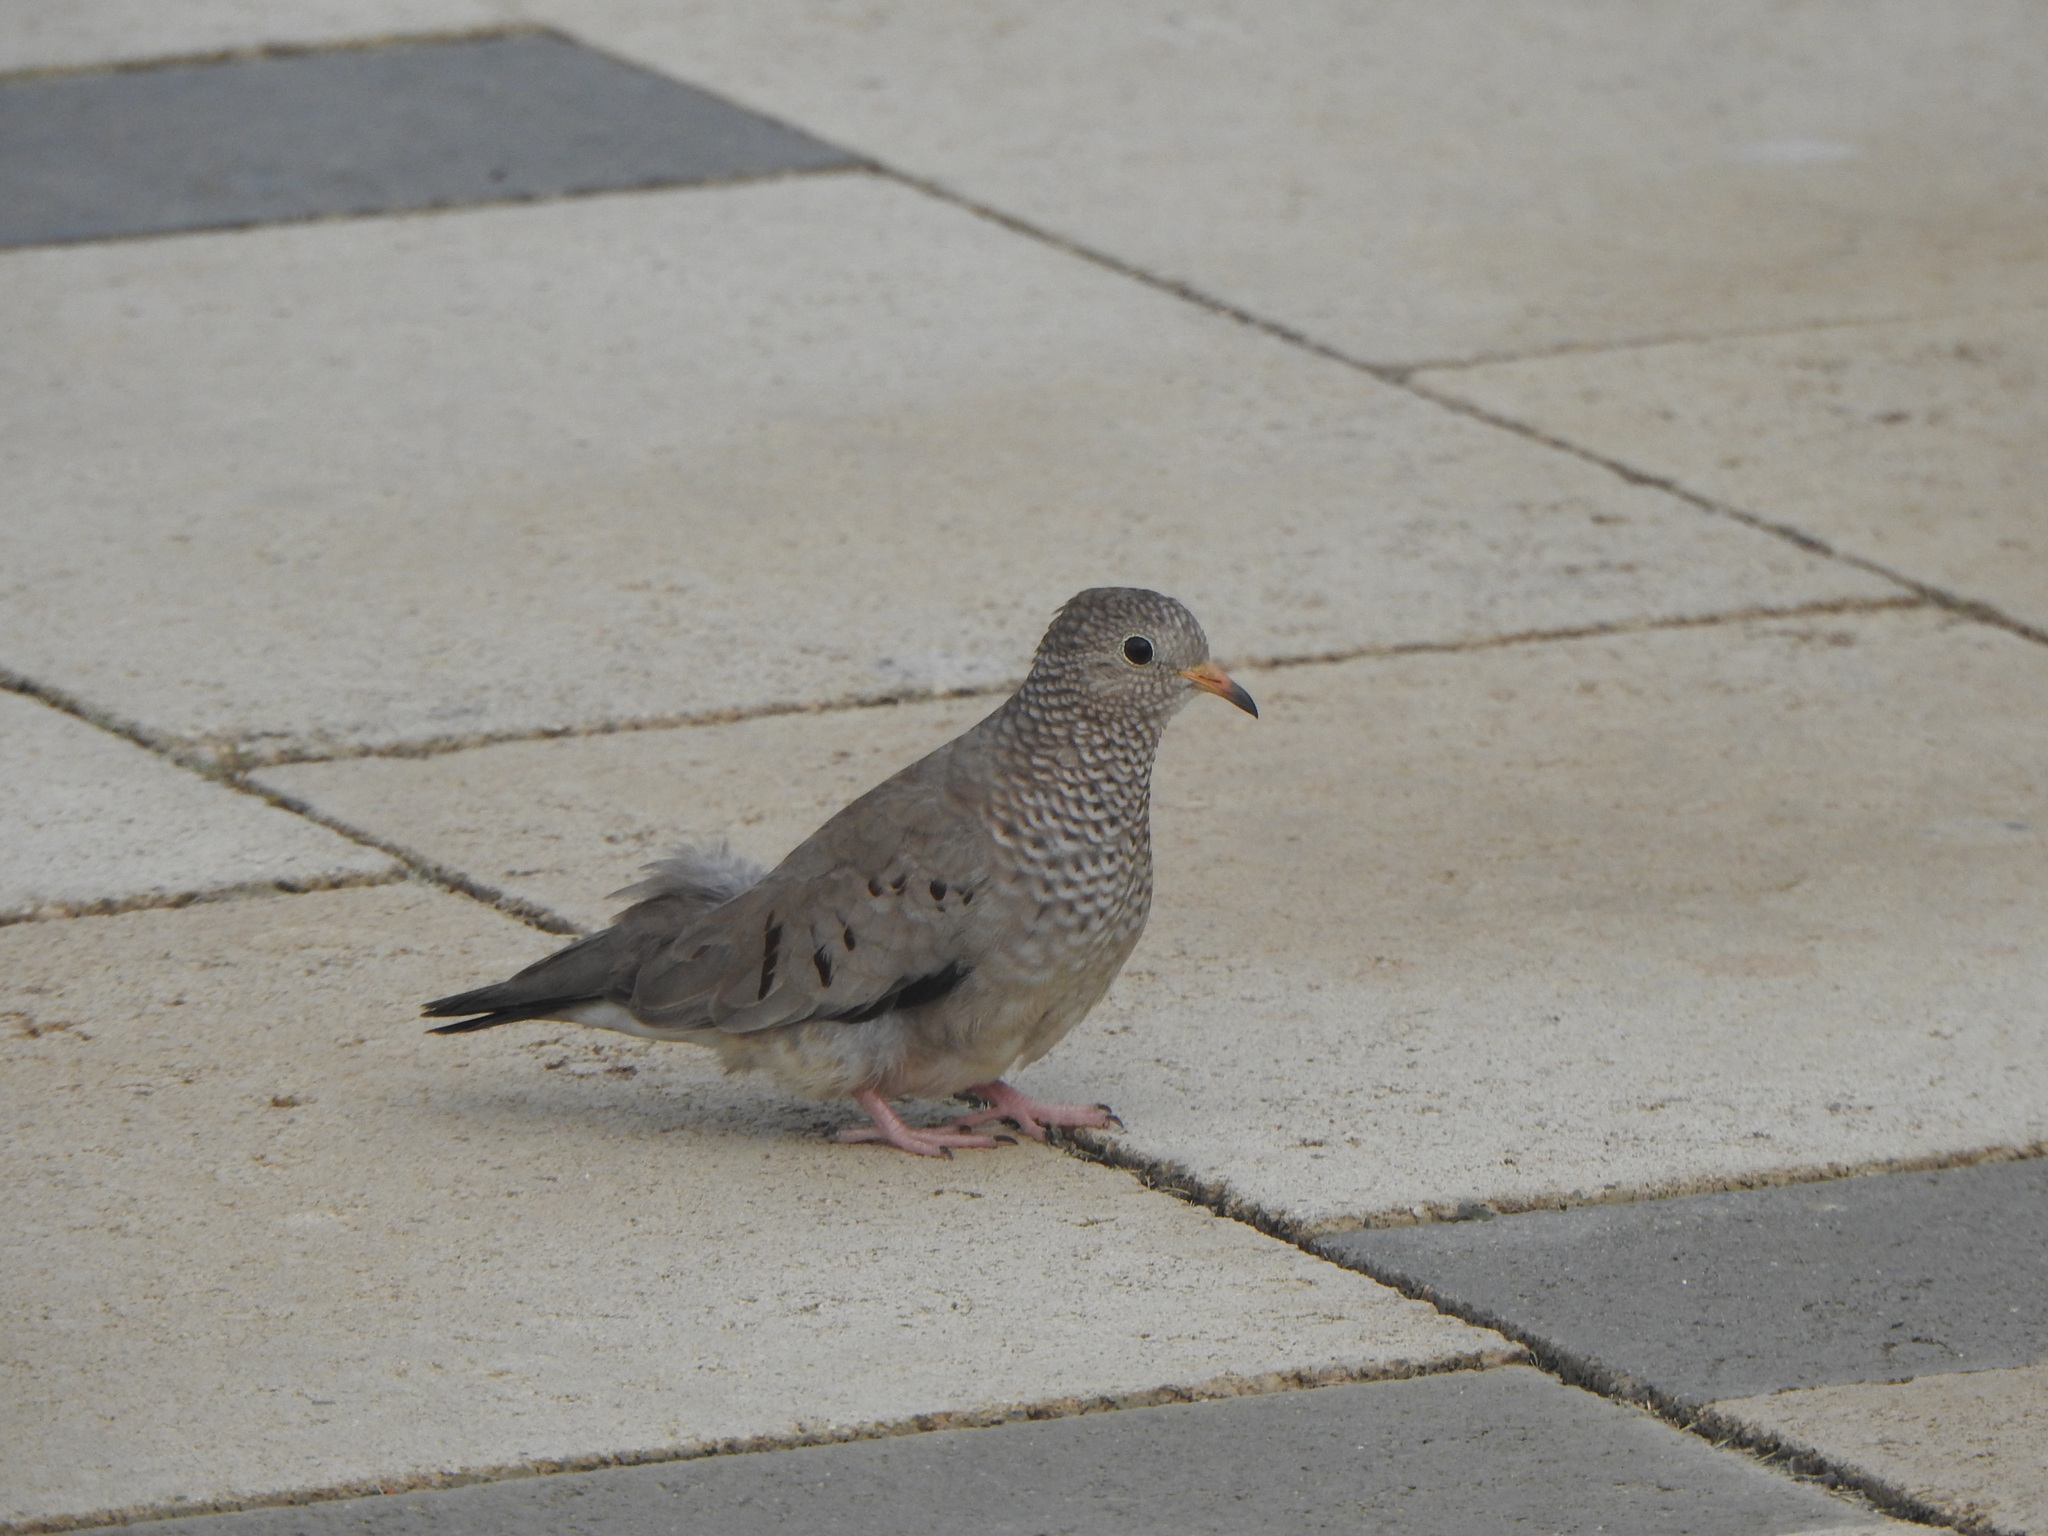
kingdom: Animalia
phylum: Chordata
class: Aves
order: Columbiformes
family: Columbidae
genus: Columbina
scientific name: Columbina passerina
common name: Common ground-dove
